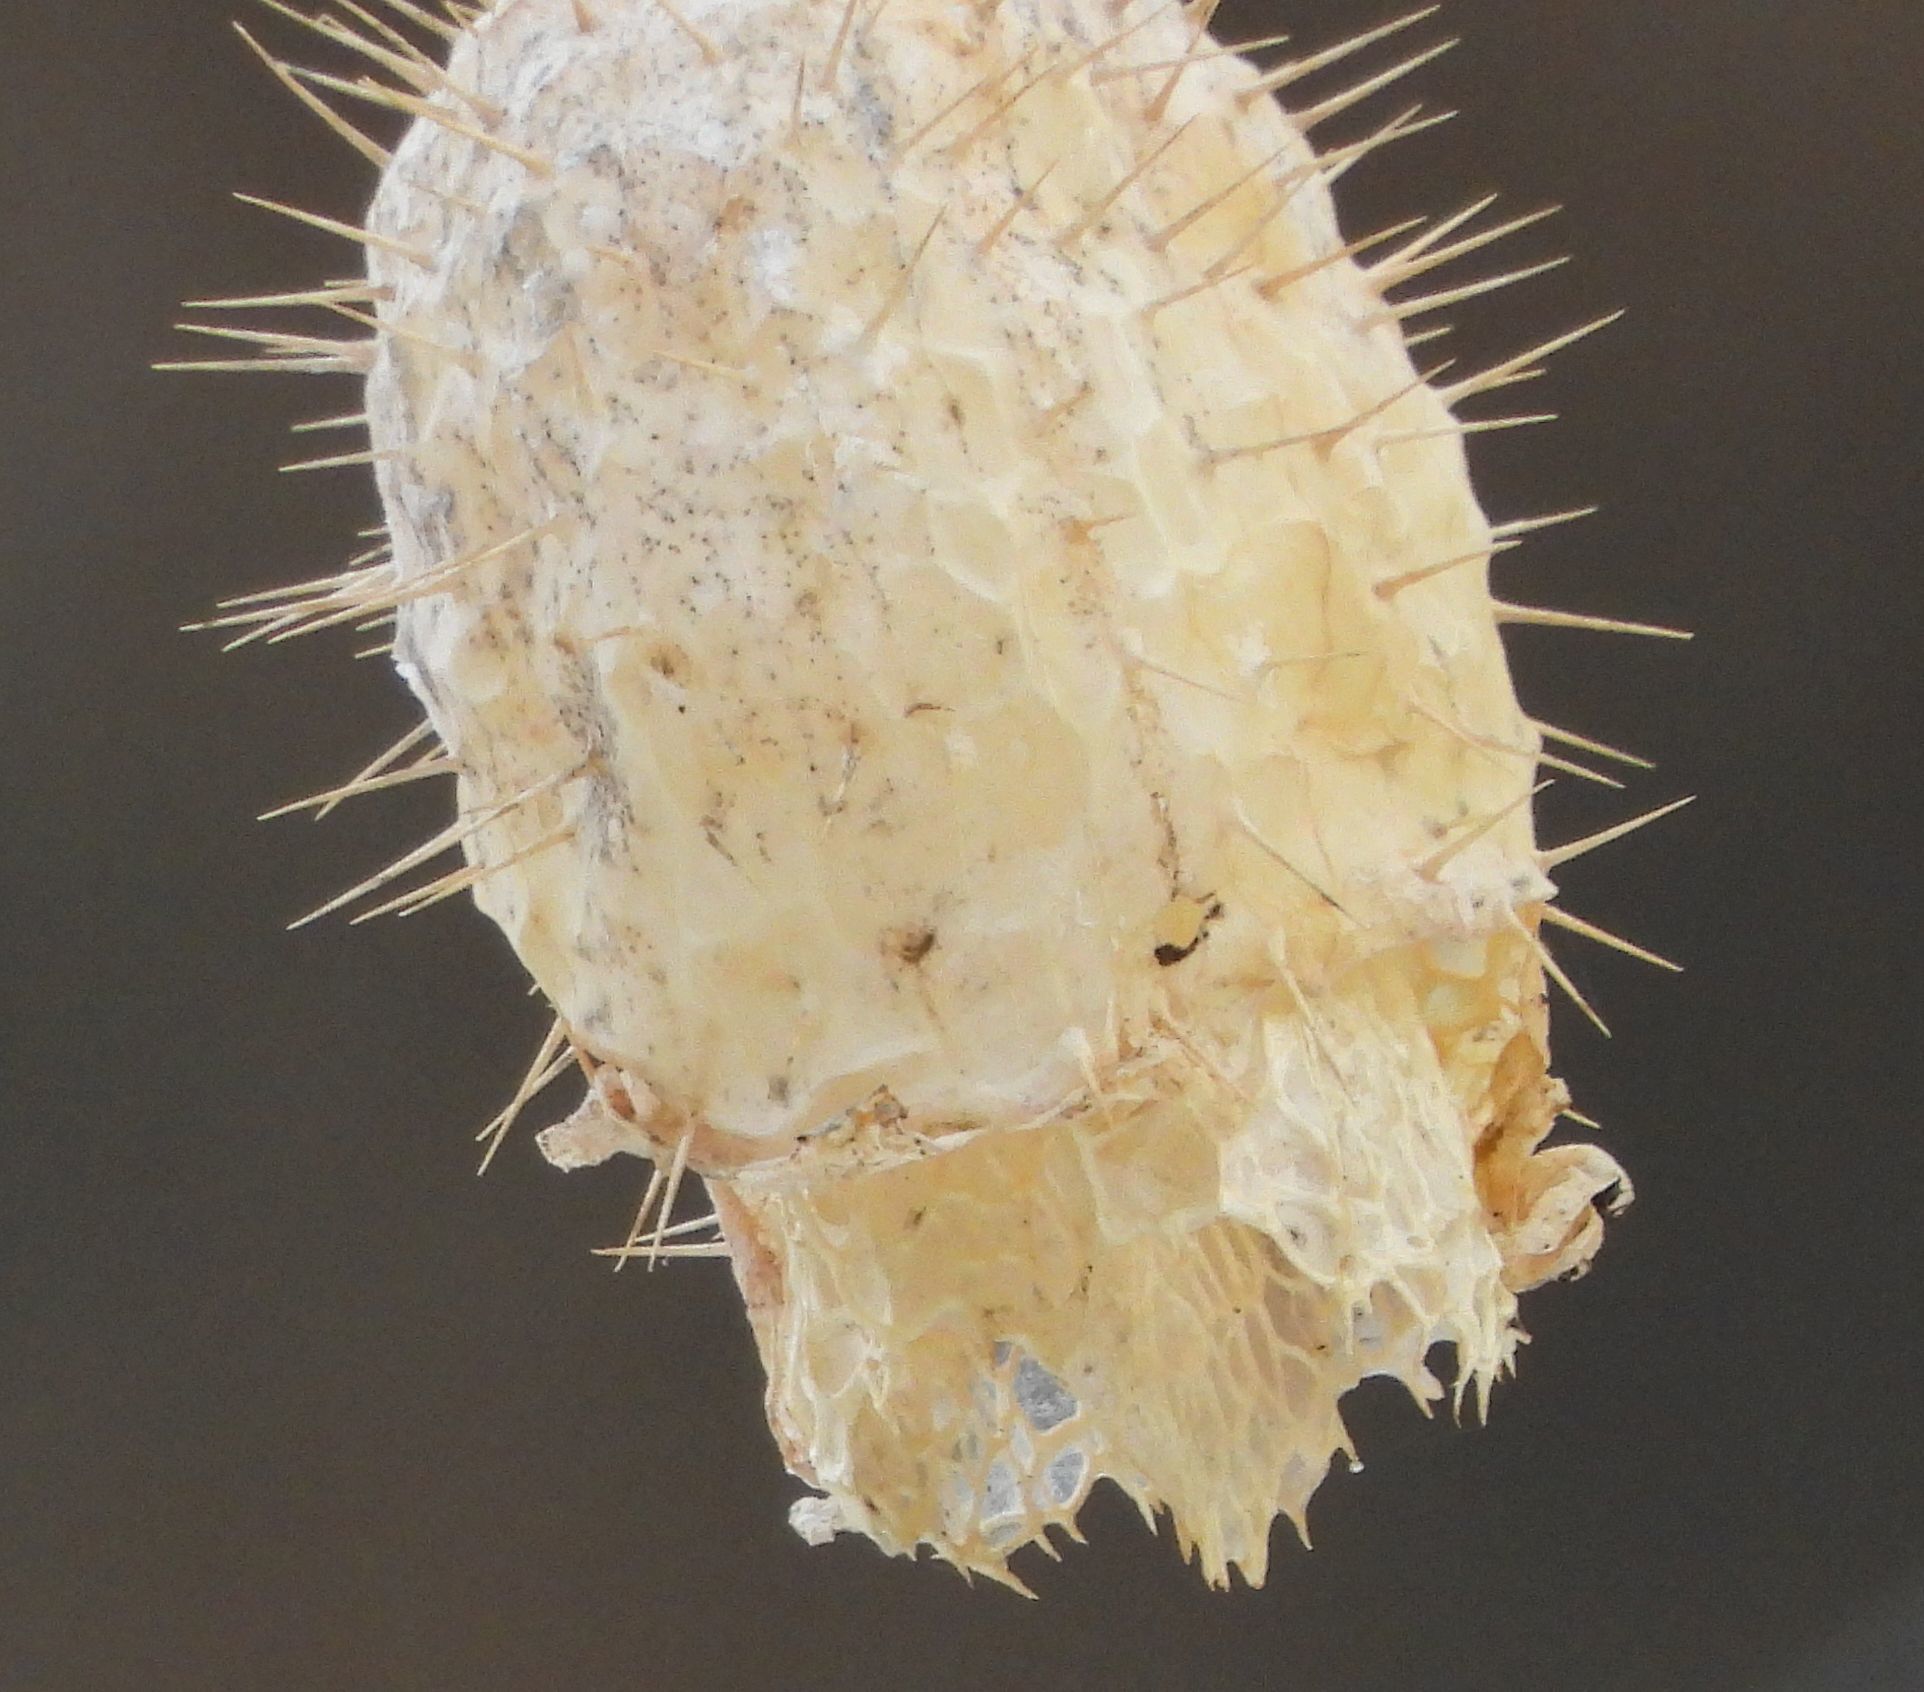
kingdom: Plantae
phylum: Tracheophyta
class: Magnoliopsida
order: Cucurbitales
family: Cucurbitaceae
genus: Echinocystis
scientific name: Echinocystis lobata
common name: Wild cucumber
